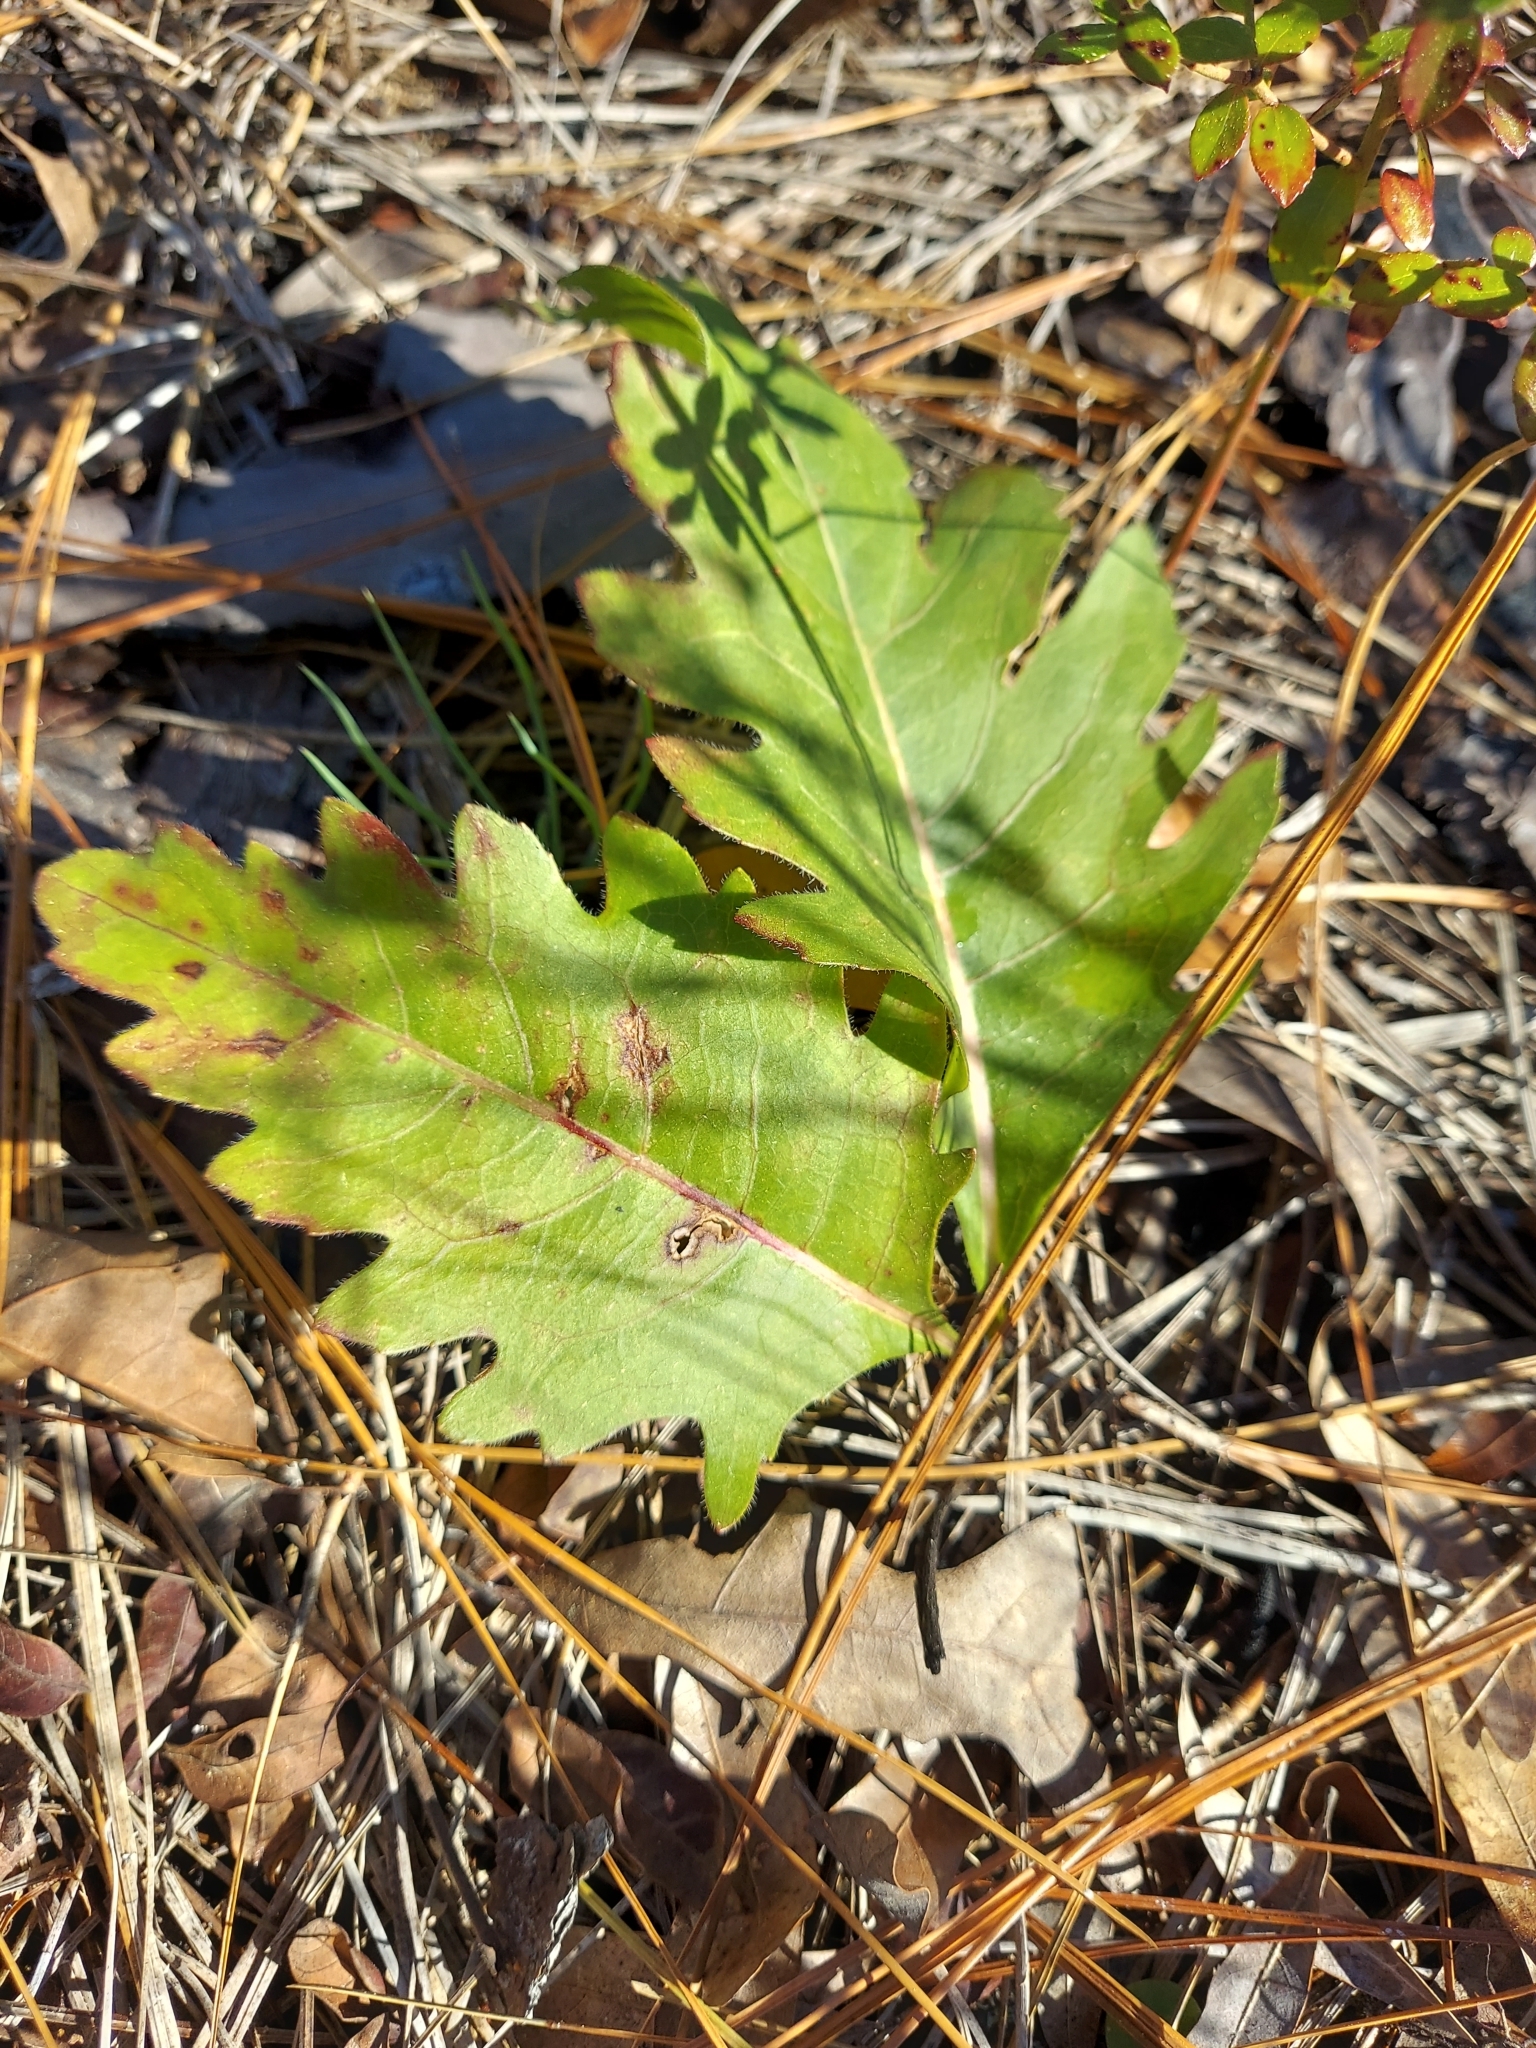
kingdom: Plantae
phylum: Tracheophyta
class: Magnoliopsida
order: Asterales
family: Asteraceae
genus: Silphium
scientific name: Silphium compositum
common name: Lesser basal-leaf rosinweed
